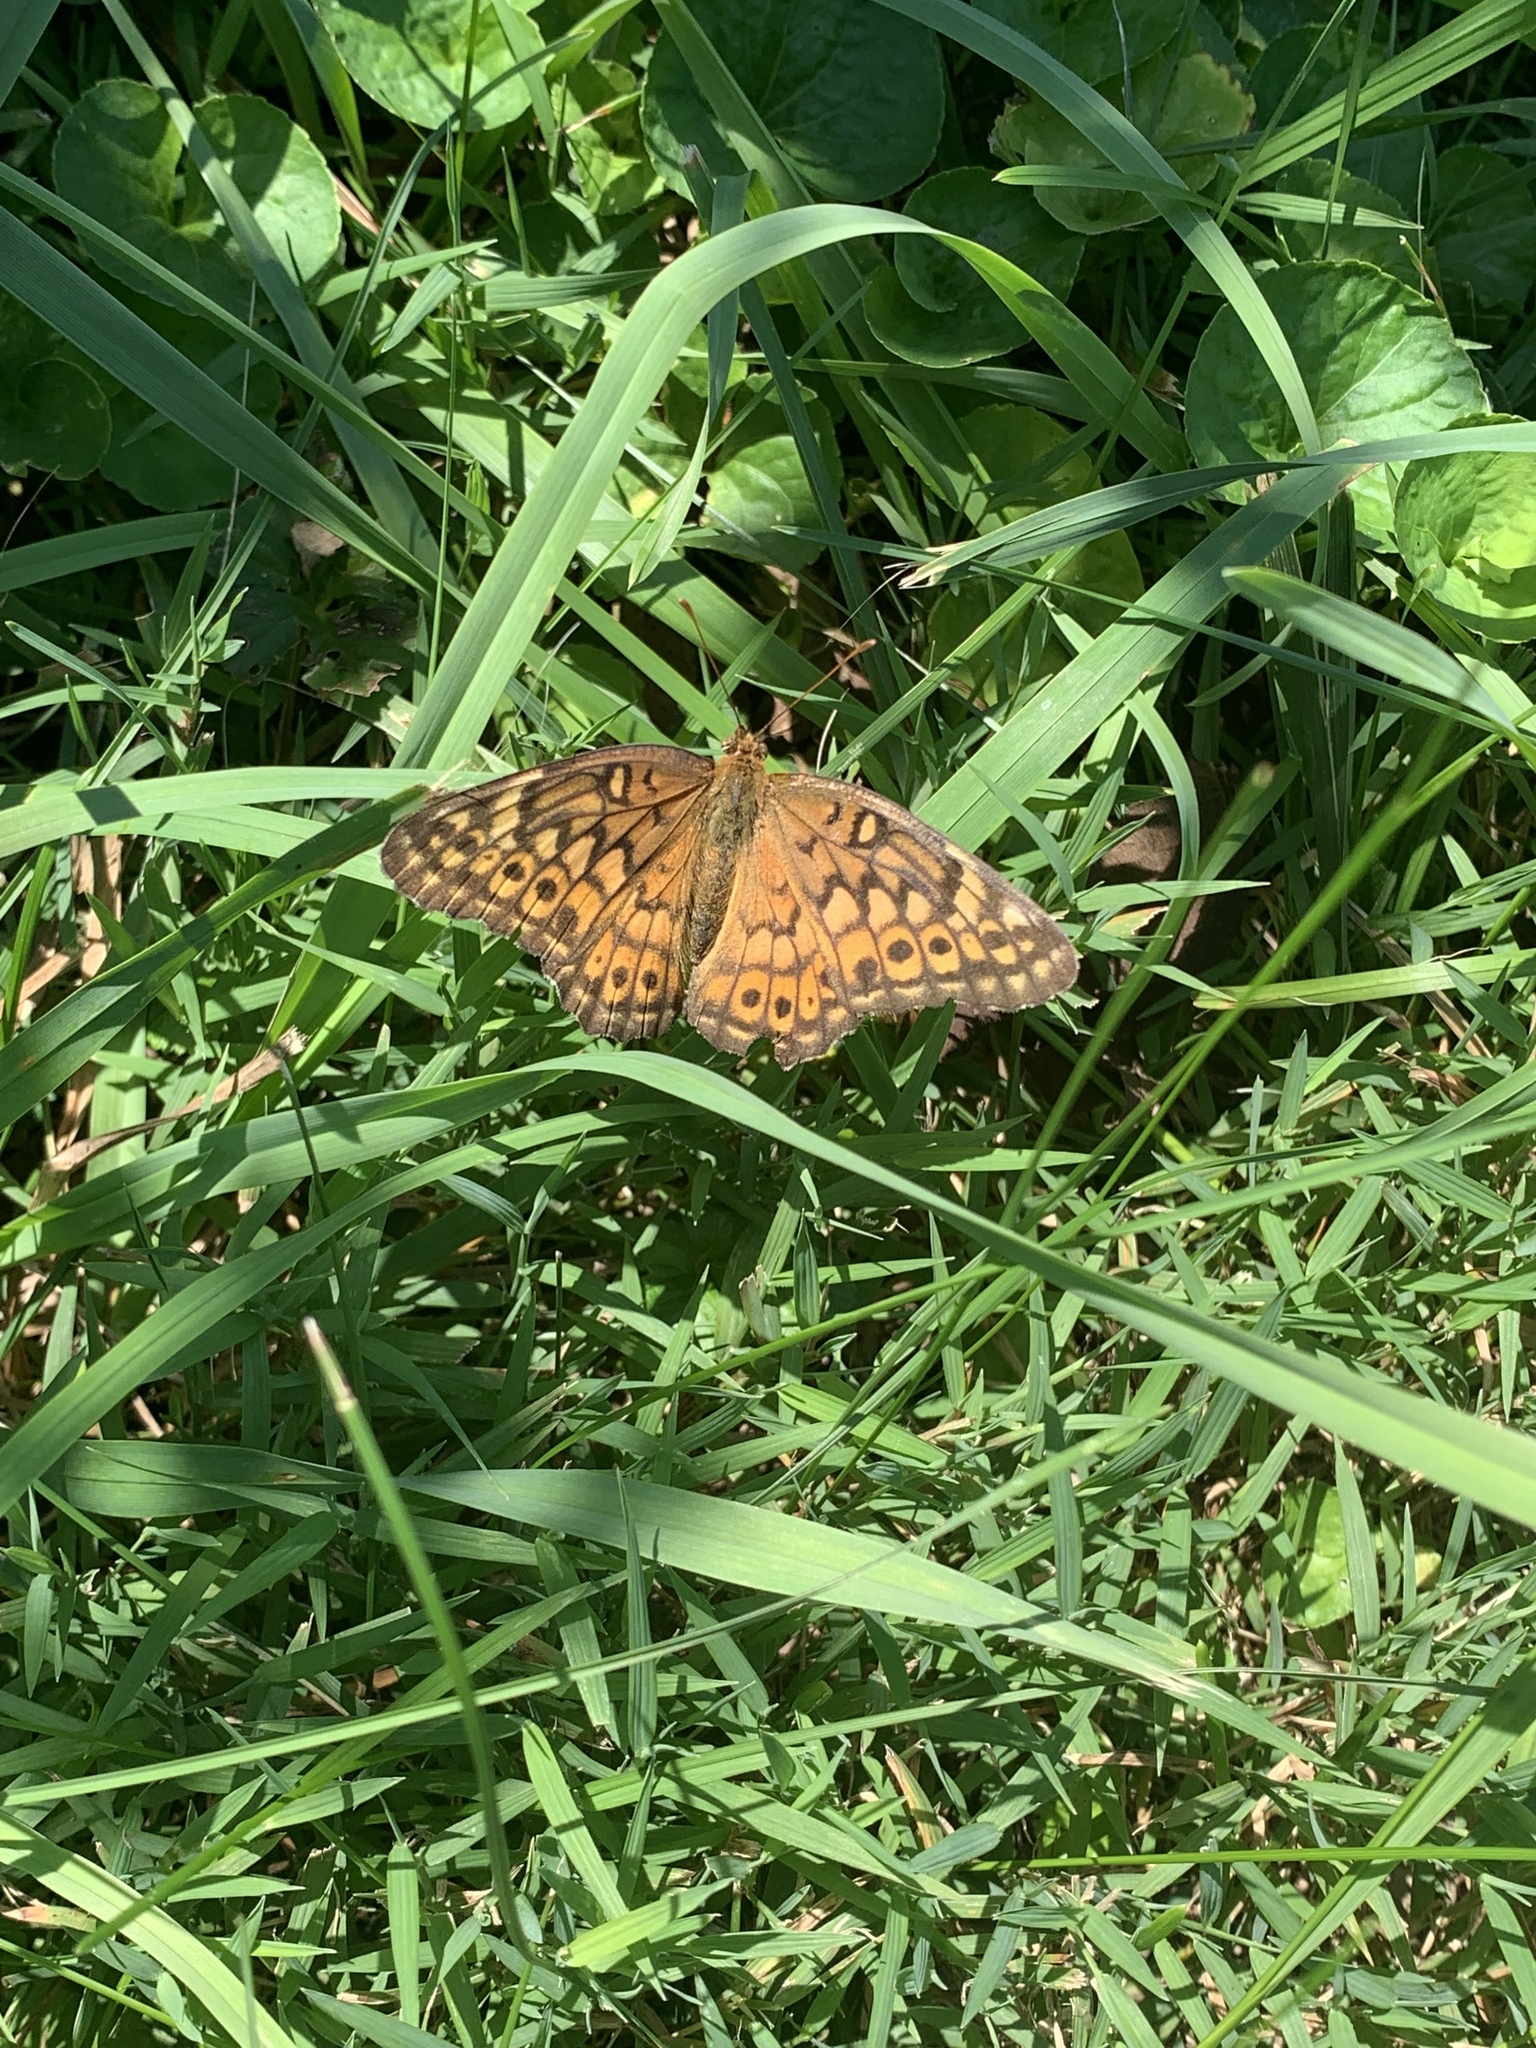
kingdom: Animalia
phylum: Arthropoda
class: Insecta
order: Lepidoptera
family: Nymphalidae
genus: Euptoieta
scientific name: Euptoieta claudia
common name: Variegated fritillary
